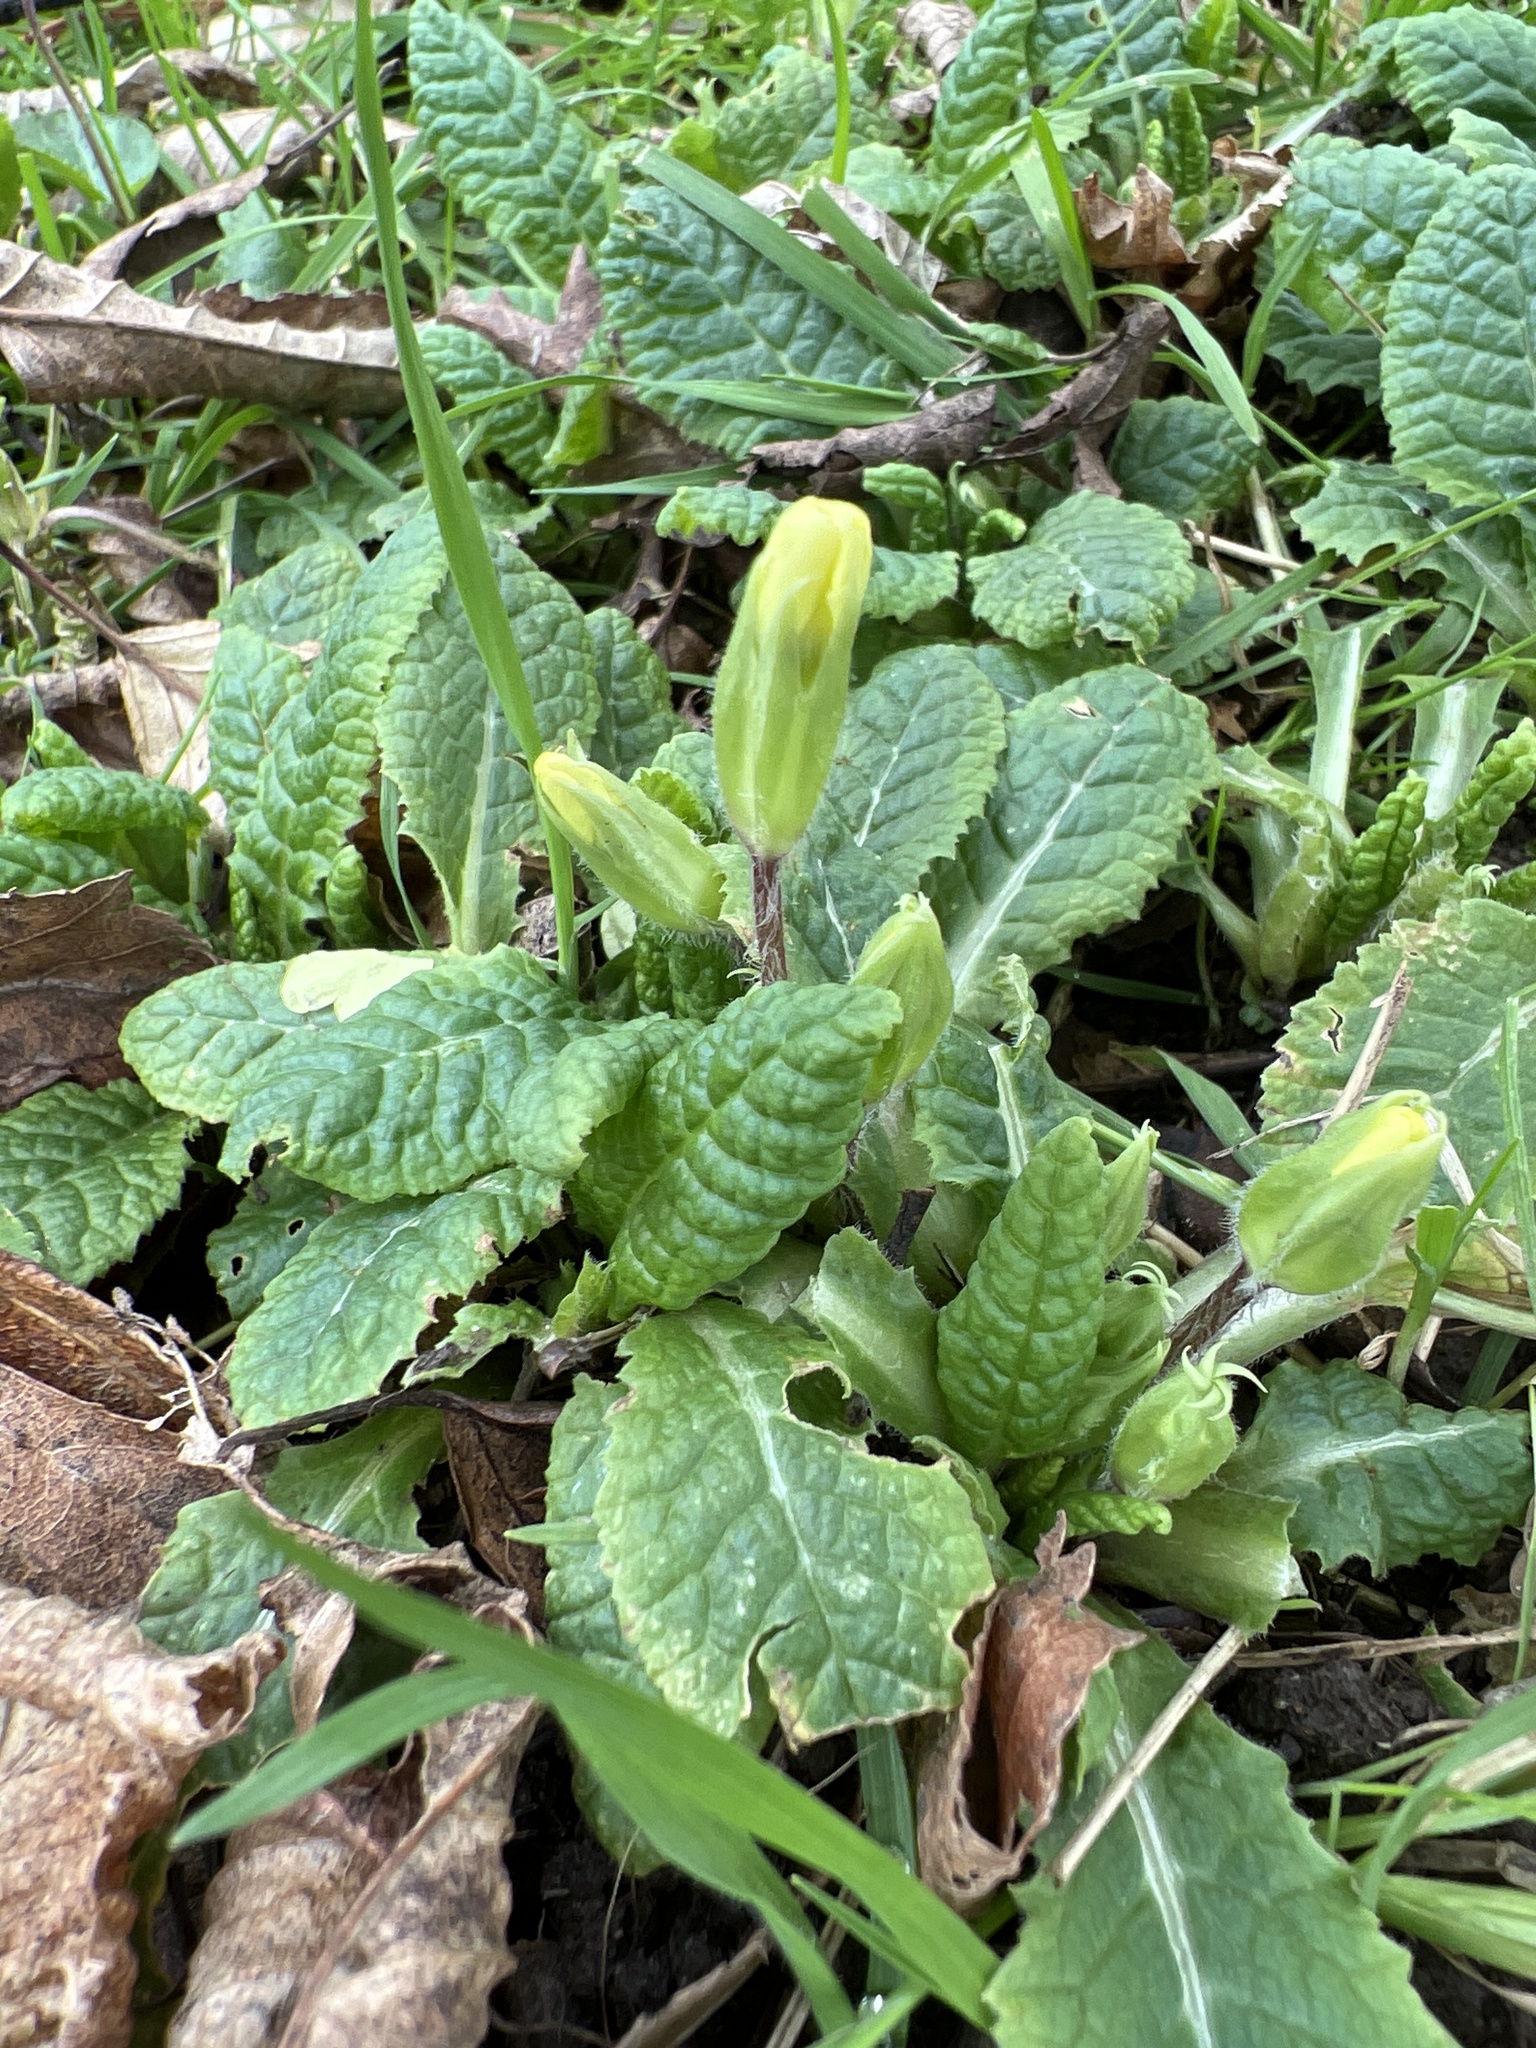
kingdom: Plantae
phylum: Tracheophyta
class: Magnoliopsida
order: Ericales
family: Primulaceae
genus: Primula
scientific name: Primula vulgaris
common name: Primrose
